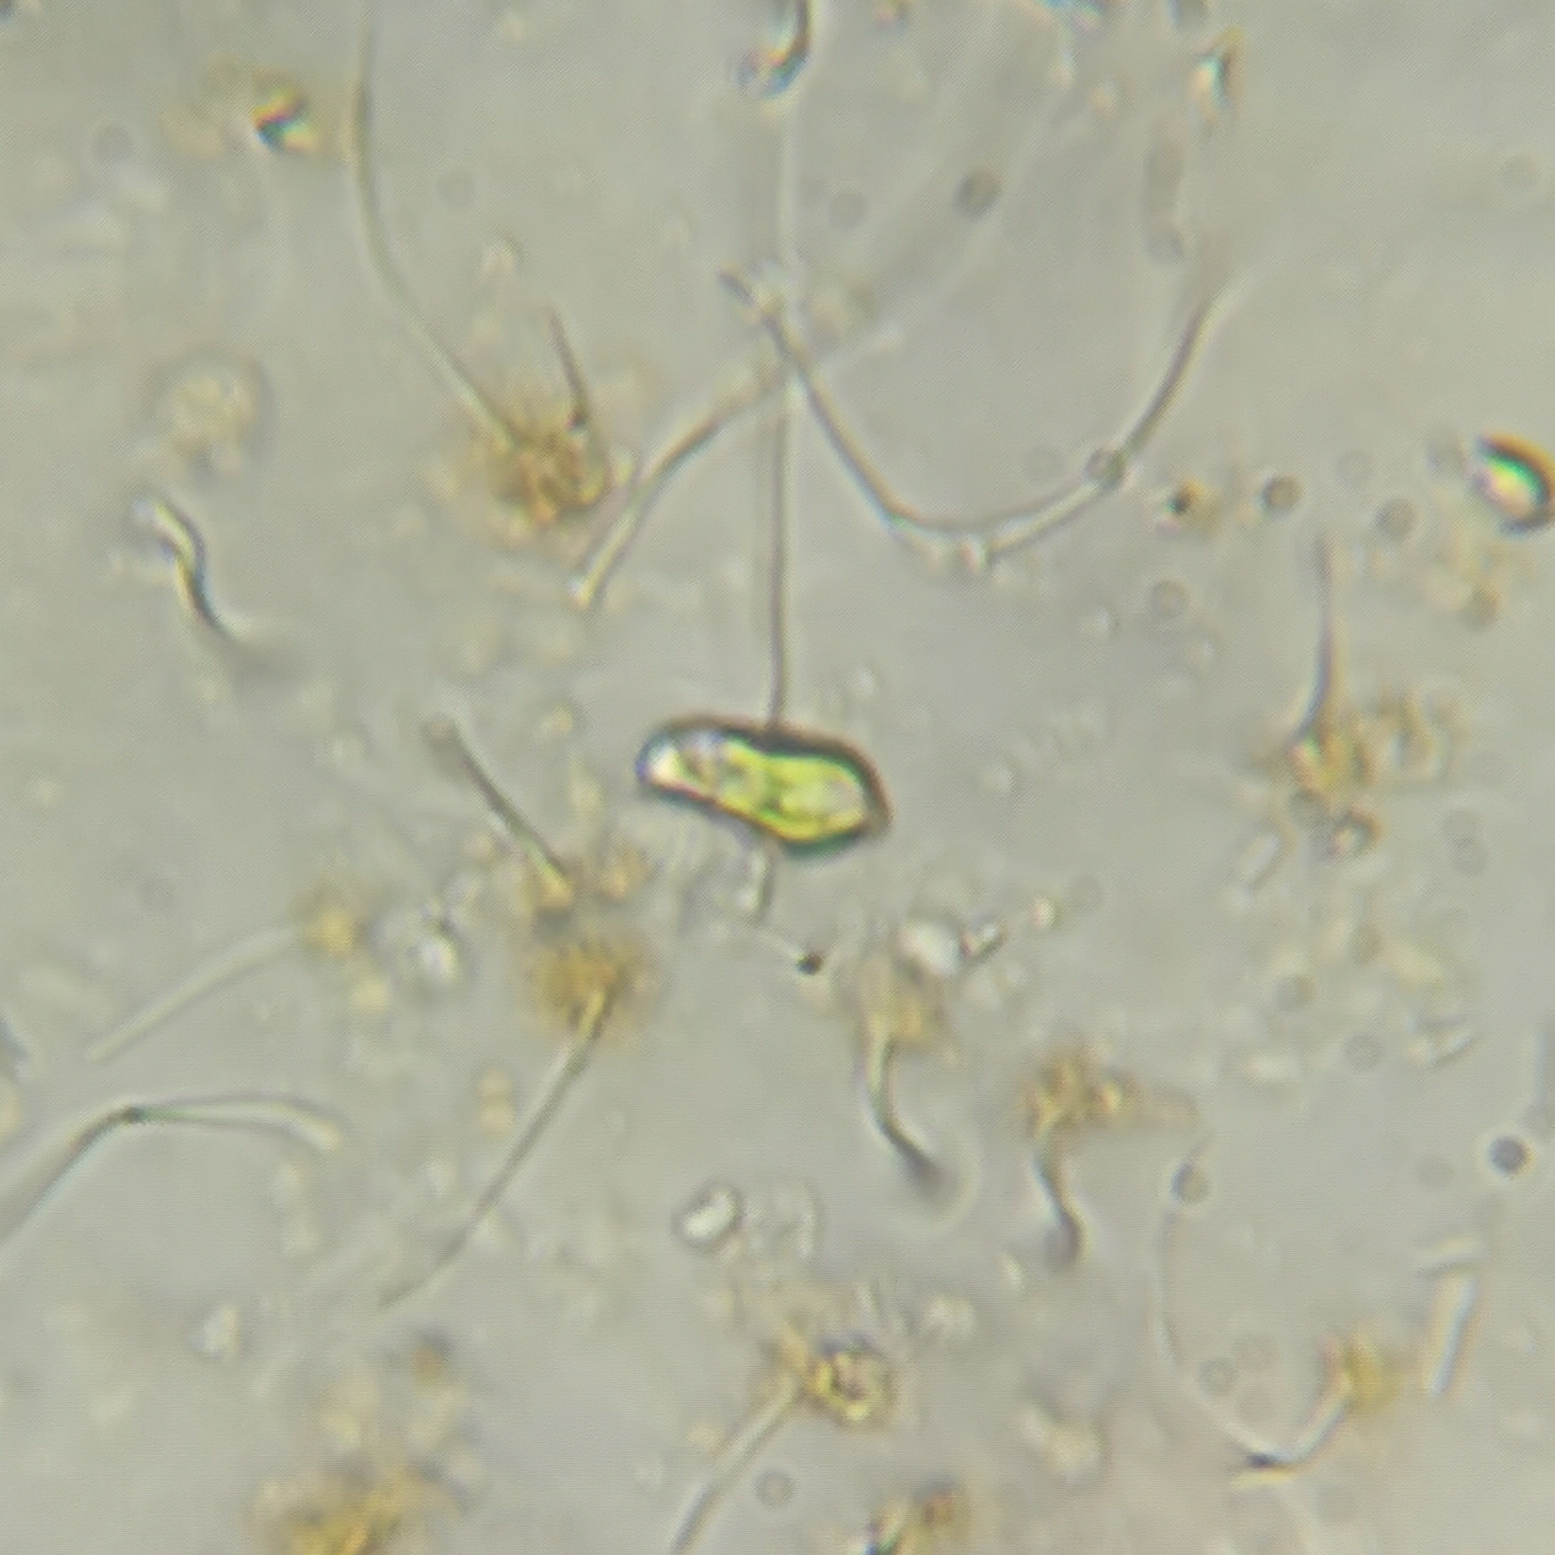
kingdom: Protozoa
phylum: Euglenozoa
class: Euglenoidea
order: Euglenida
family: Euglenaceae
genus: Euglena
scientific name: Euglena pisciformis
